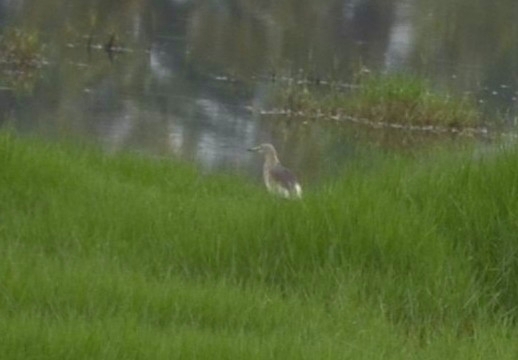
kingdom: Animalia
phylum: Chordata
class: Aves
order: Pelecaniformes
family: Ardeidae
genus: Ardeola
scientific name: Ardeola grayii
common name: Indian pond heron
